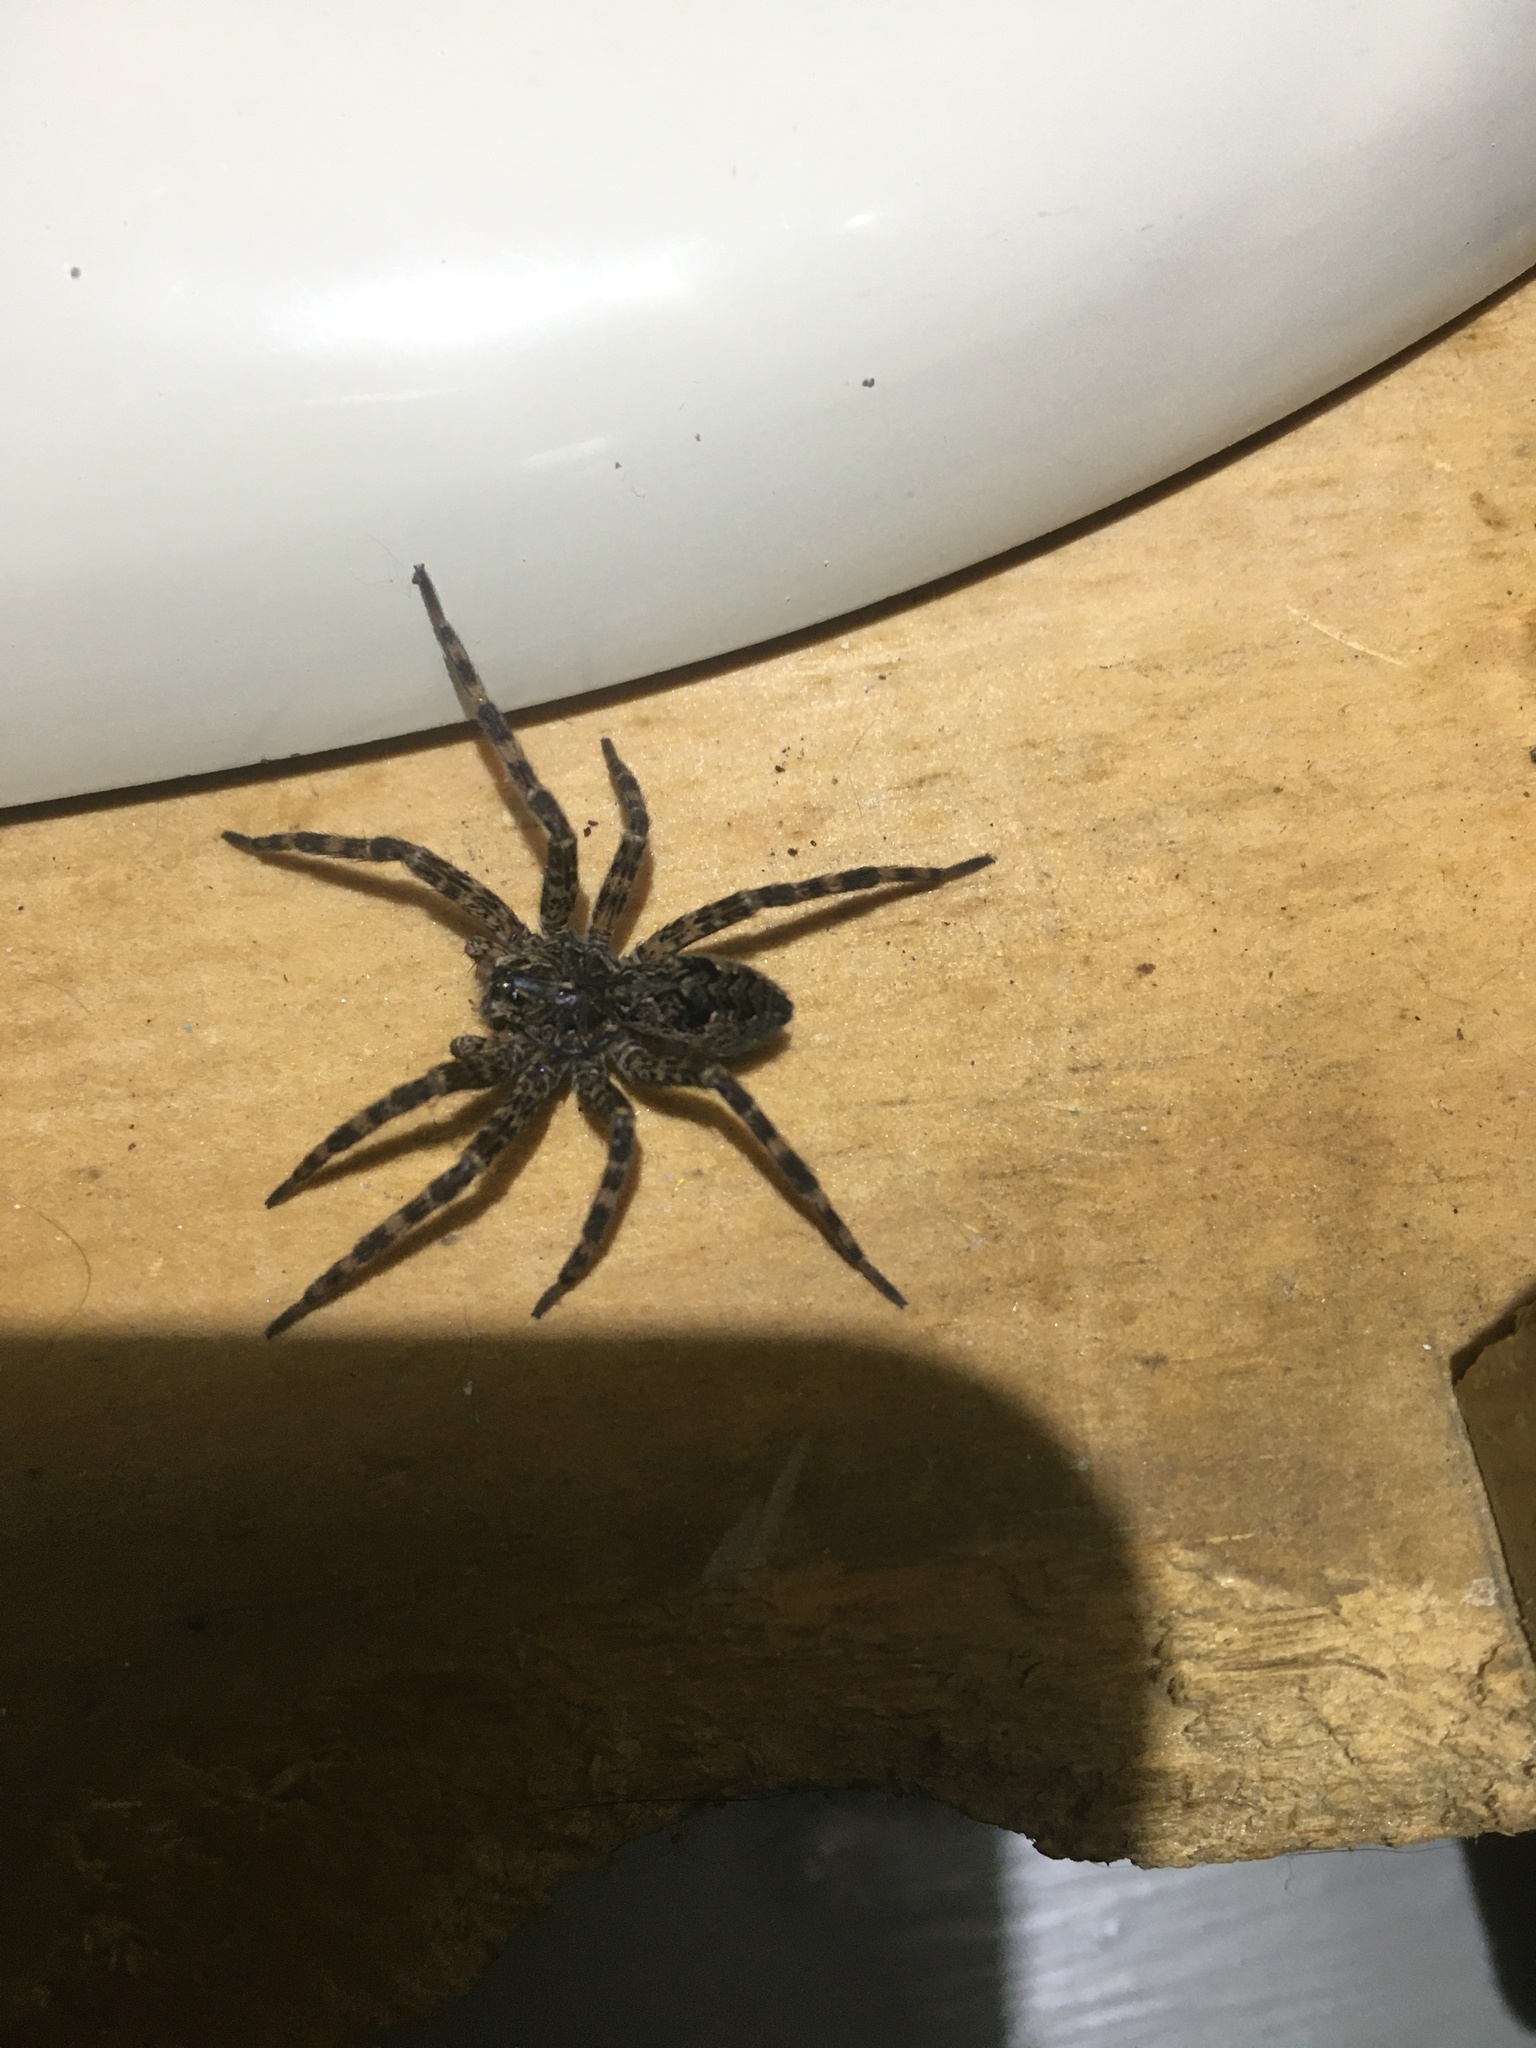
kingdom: Animalia
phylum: Arthropoda
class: Arachnida
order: Araneae
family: Pisauridae
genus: Dolomedes
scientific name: Dolomedes tenebrosus
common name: Dark fishing spider
